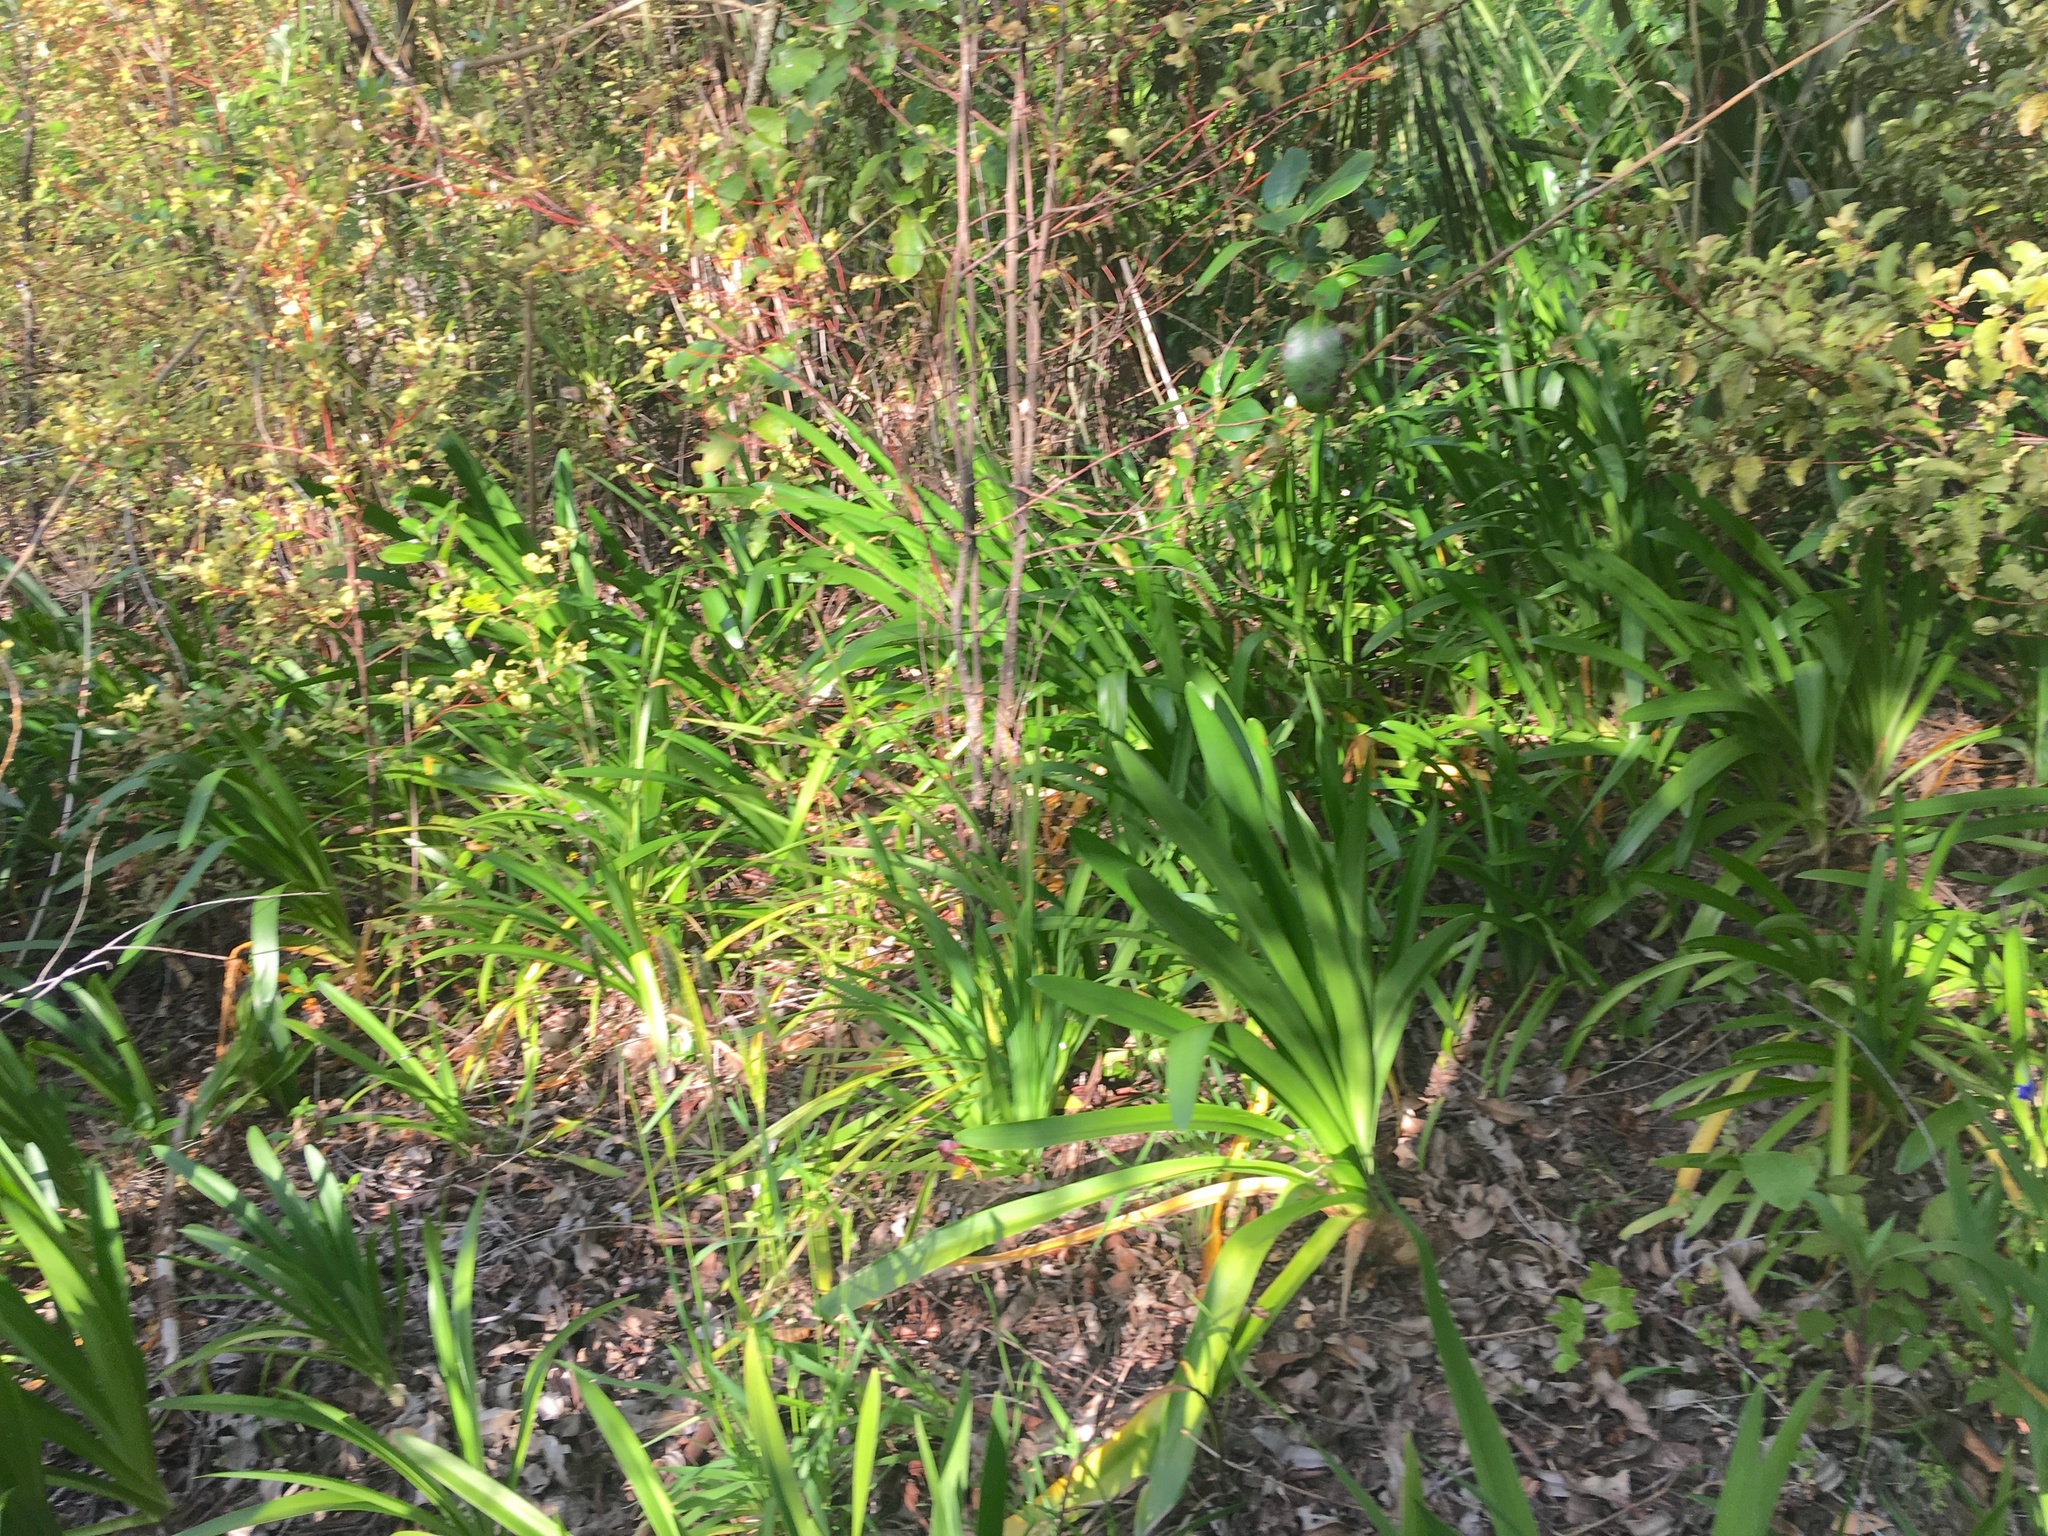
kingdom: Plantae
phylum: Tracheophyta
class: Liliopsida
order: Asparagales
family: Amaryllidaceae
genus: Agapanthus
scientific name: Agapanthus praecox
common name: African-lily
